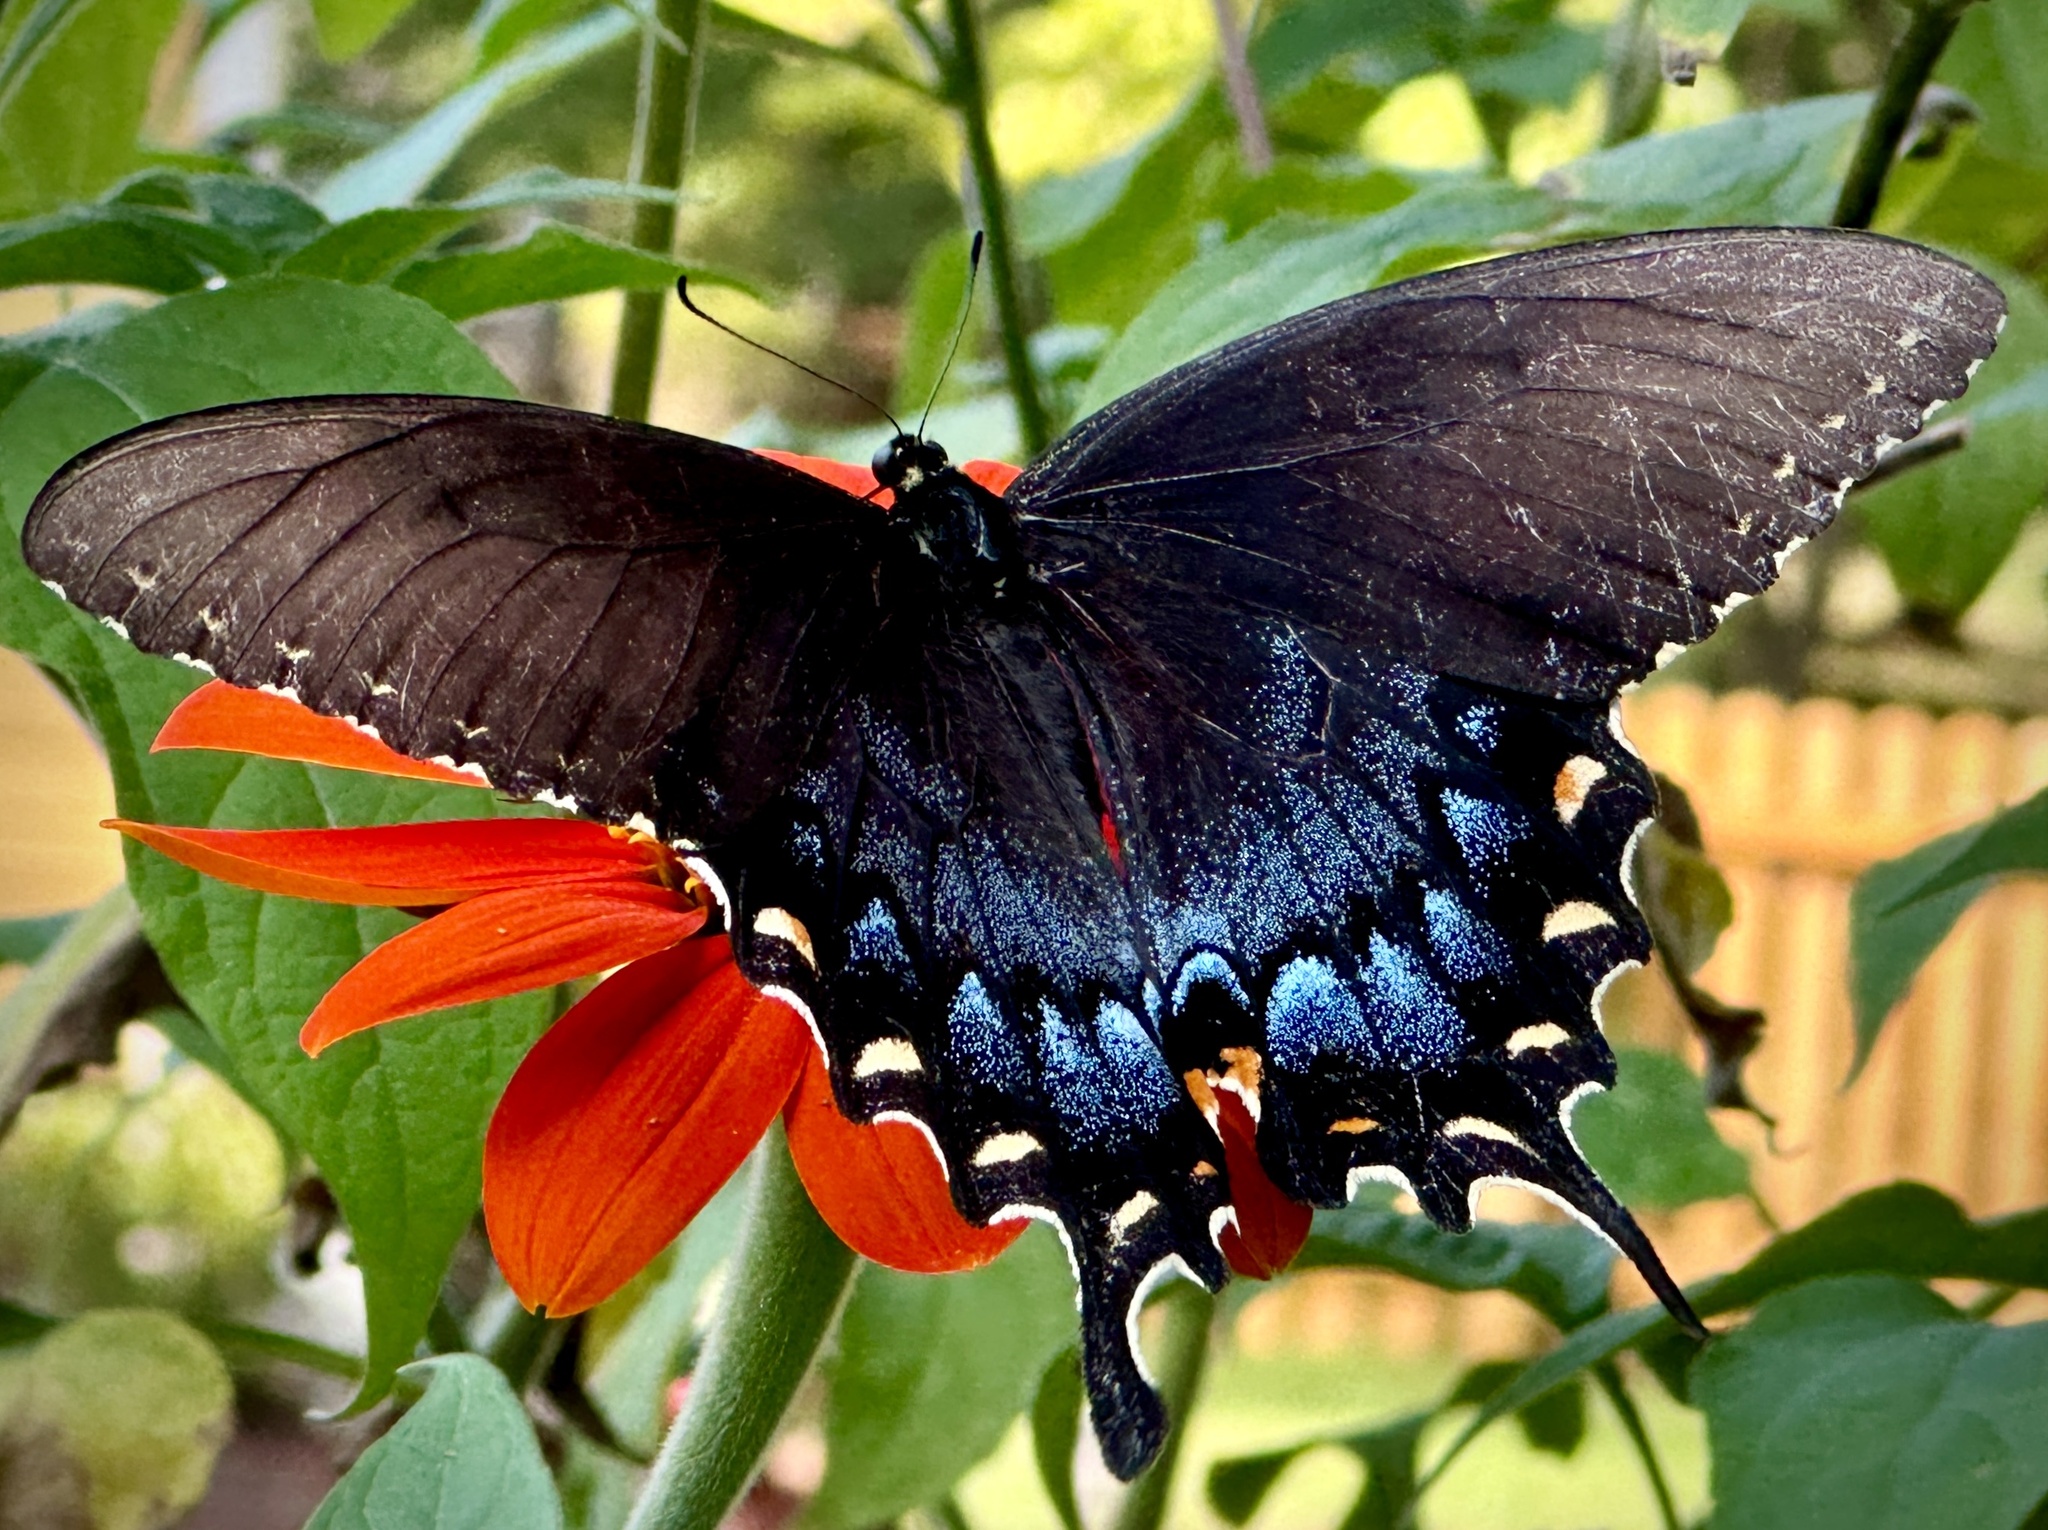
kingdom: Animalia
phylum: Arthropoda
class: Insecta
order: Lepidoptera
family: Papilionidae
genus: Papilio
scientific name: Papilio glaucus
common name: Tiger swallowtail
